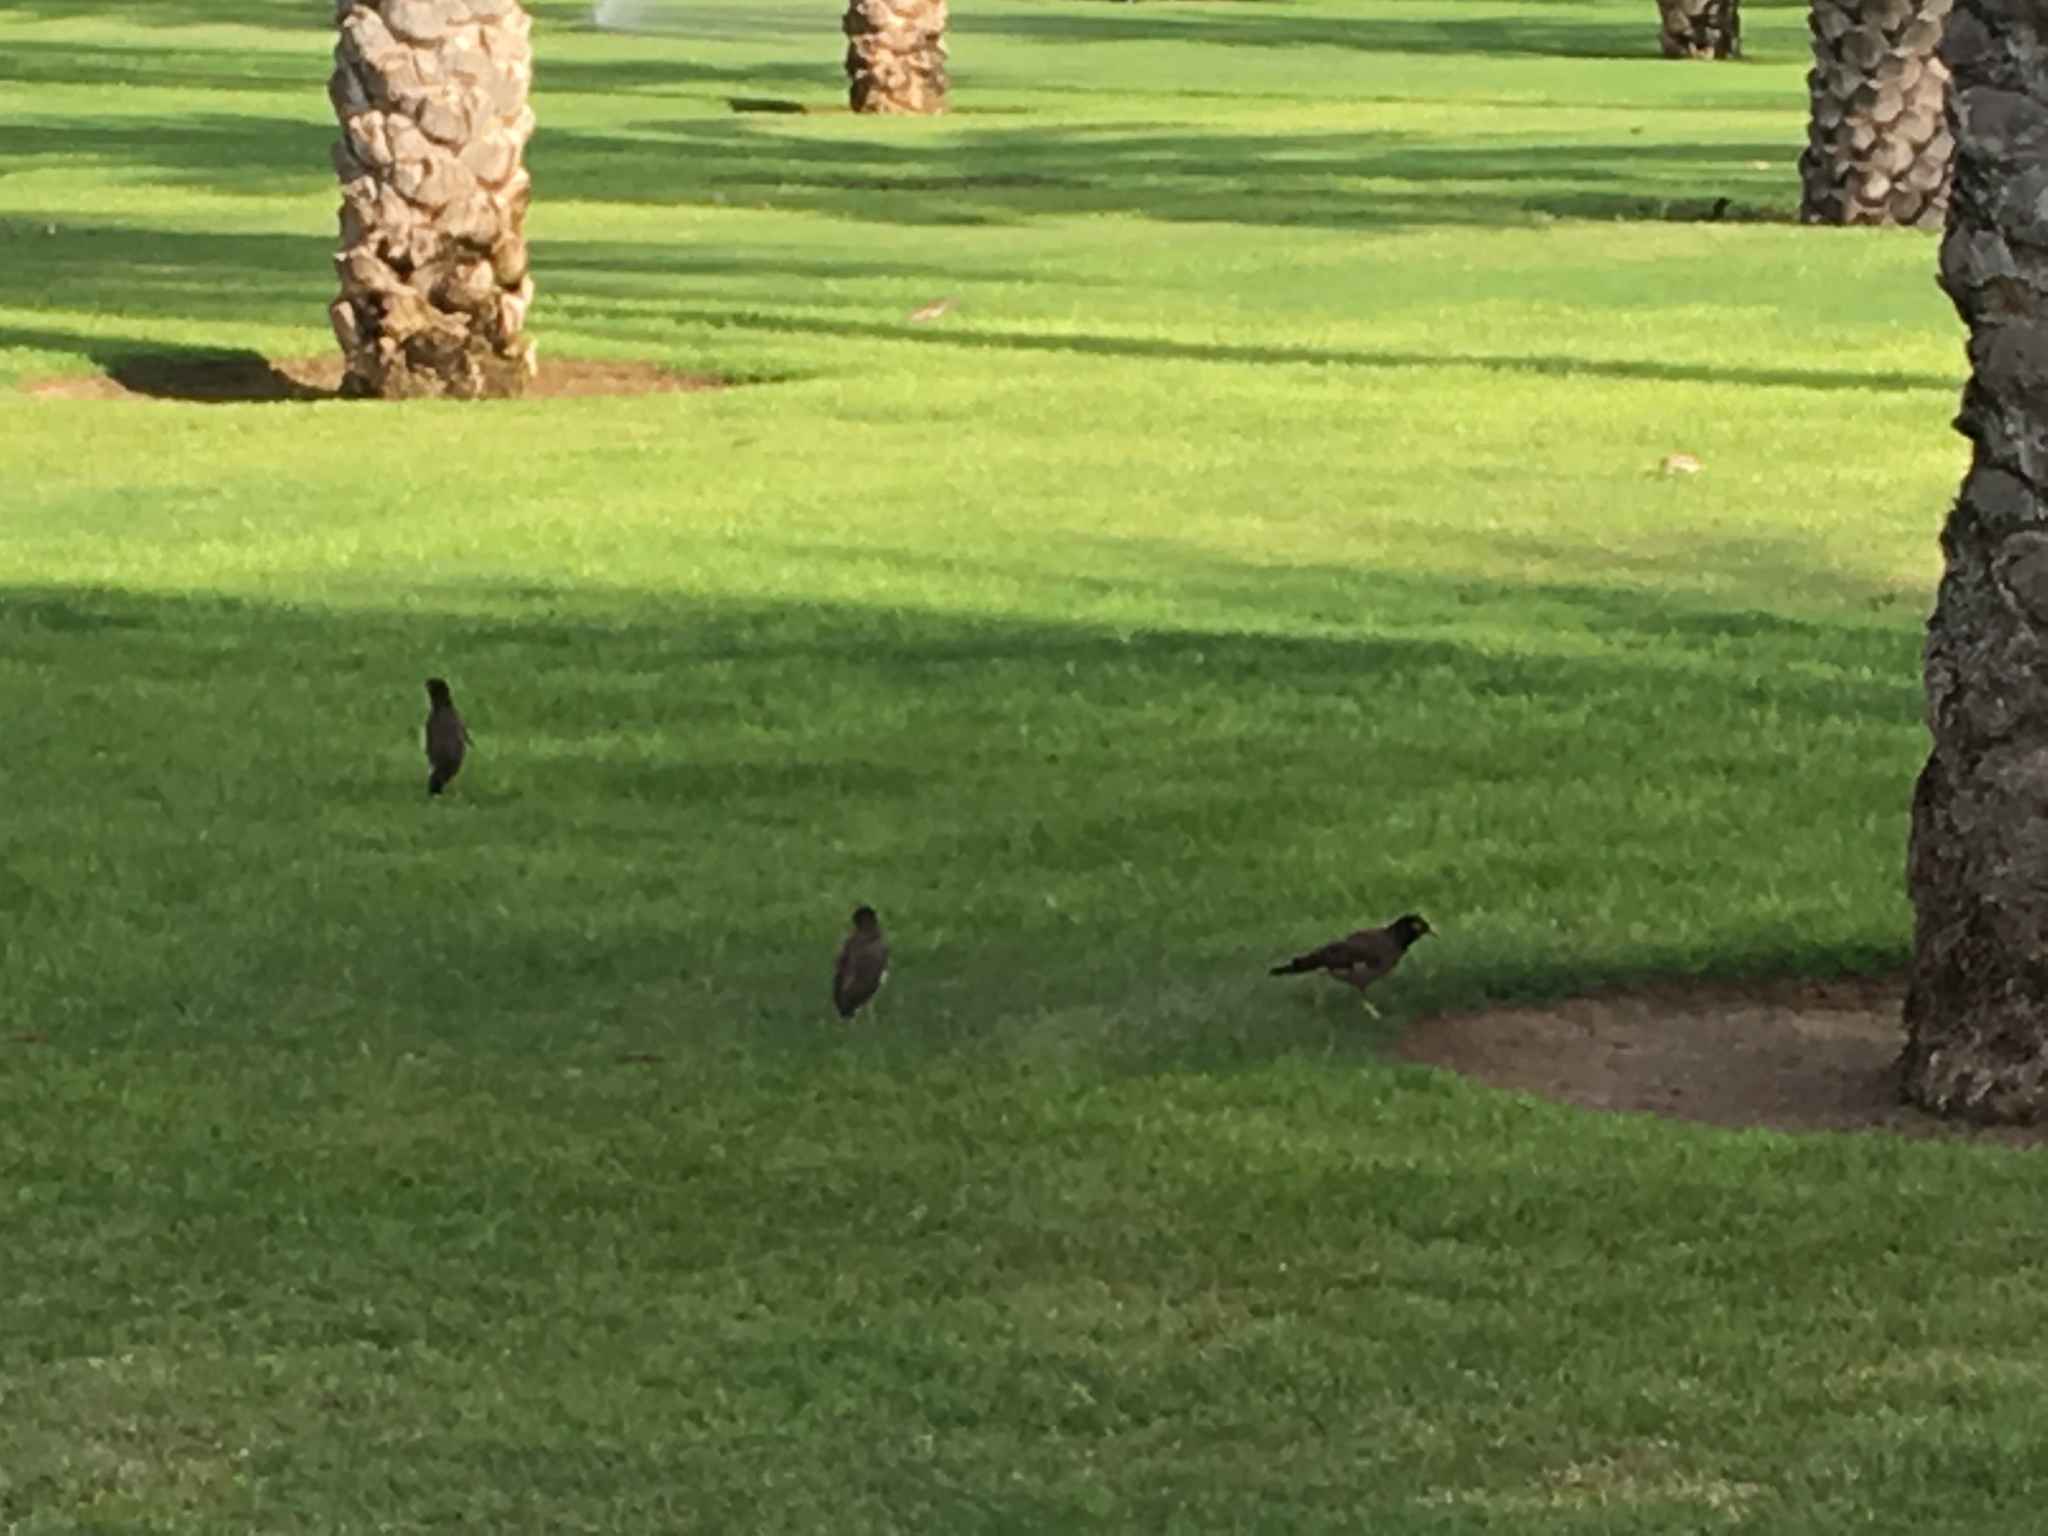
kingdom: Animalia
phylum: Chordata
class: Aves
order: Passeriformes
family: Sturnidae
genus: Acridotheres
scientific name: Acridotheres tristis
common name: Common myna
